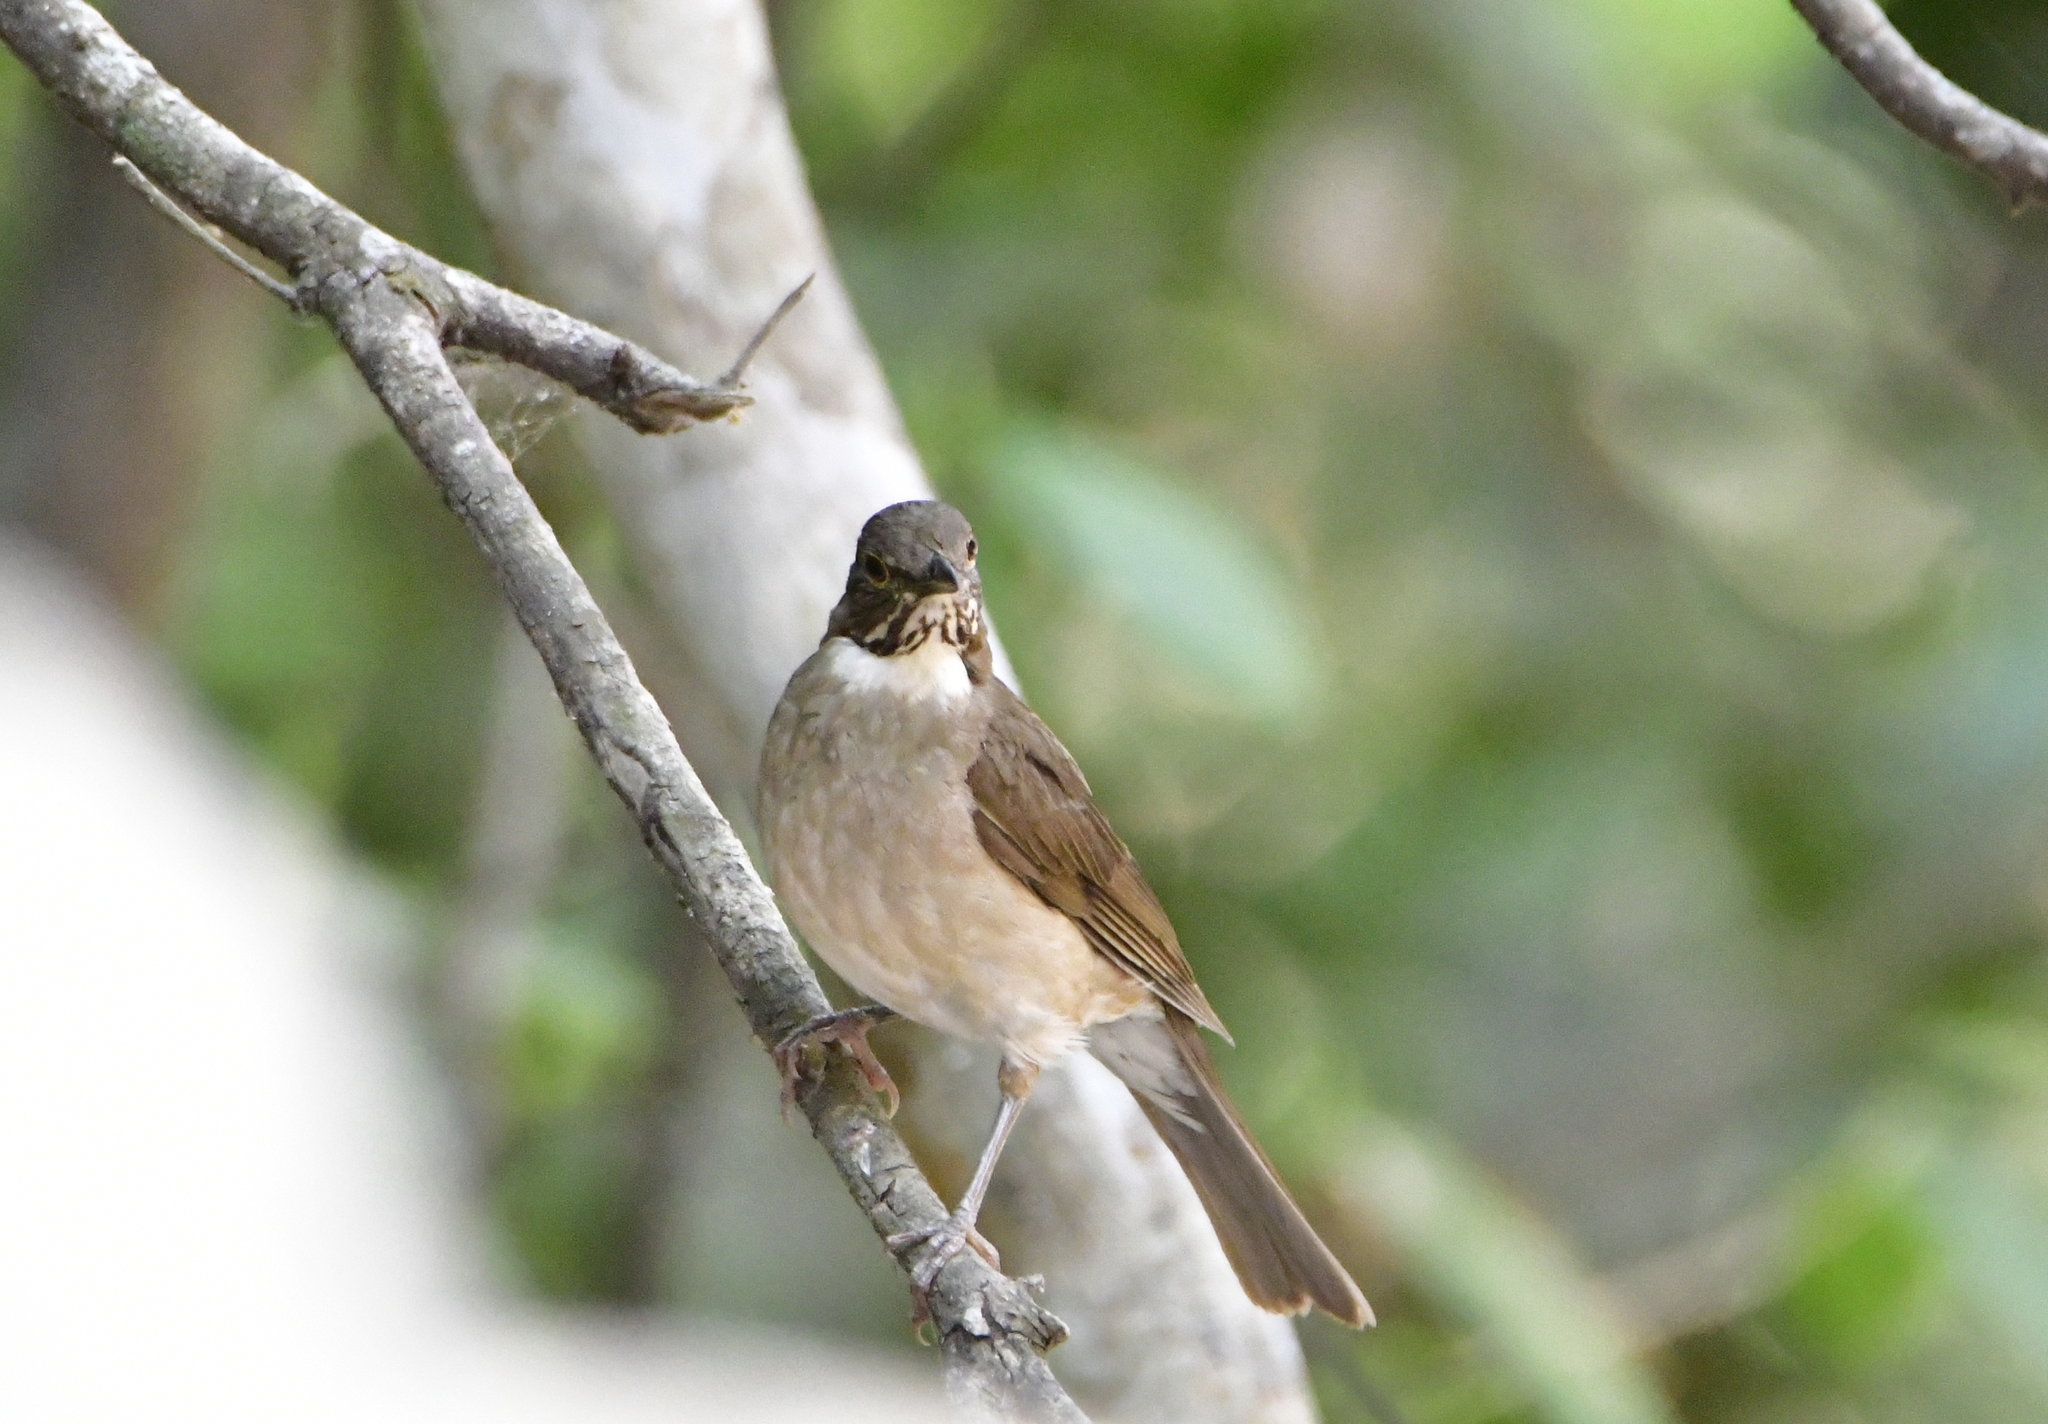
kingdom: Animalia
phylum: Chordata
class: Aves
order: Passeriformes
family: Turdidae
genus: Turdus
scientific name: Turdus assimilis
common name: White-throated thrush
